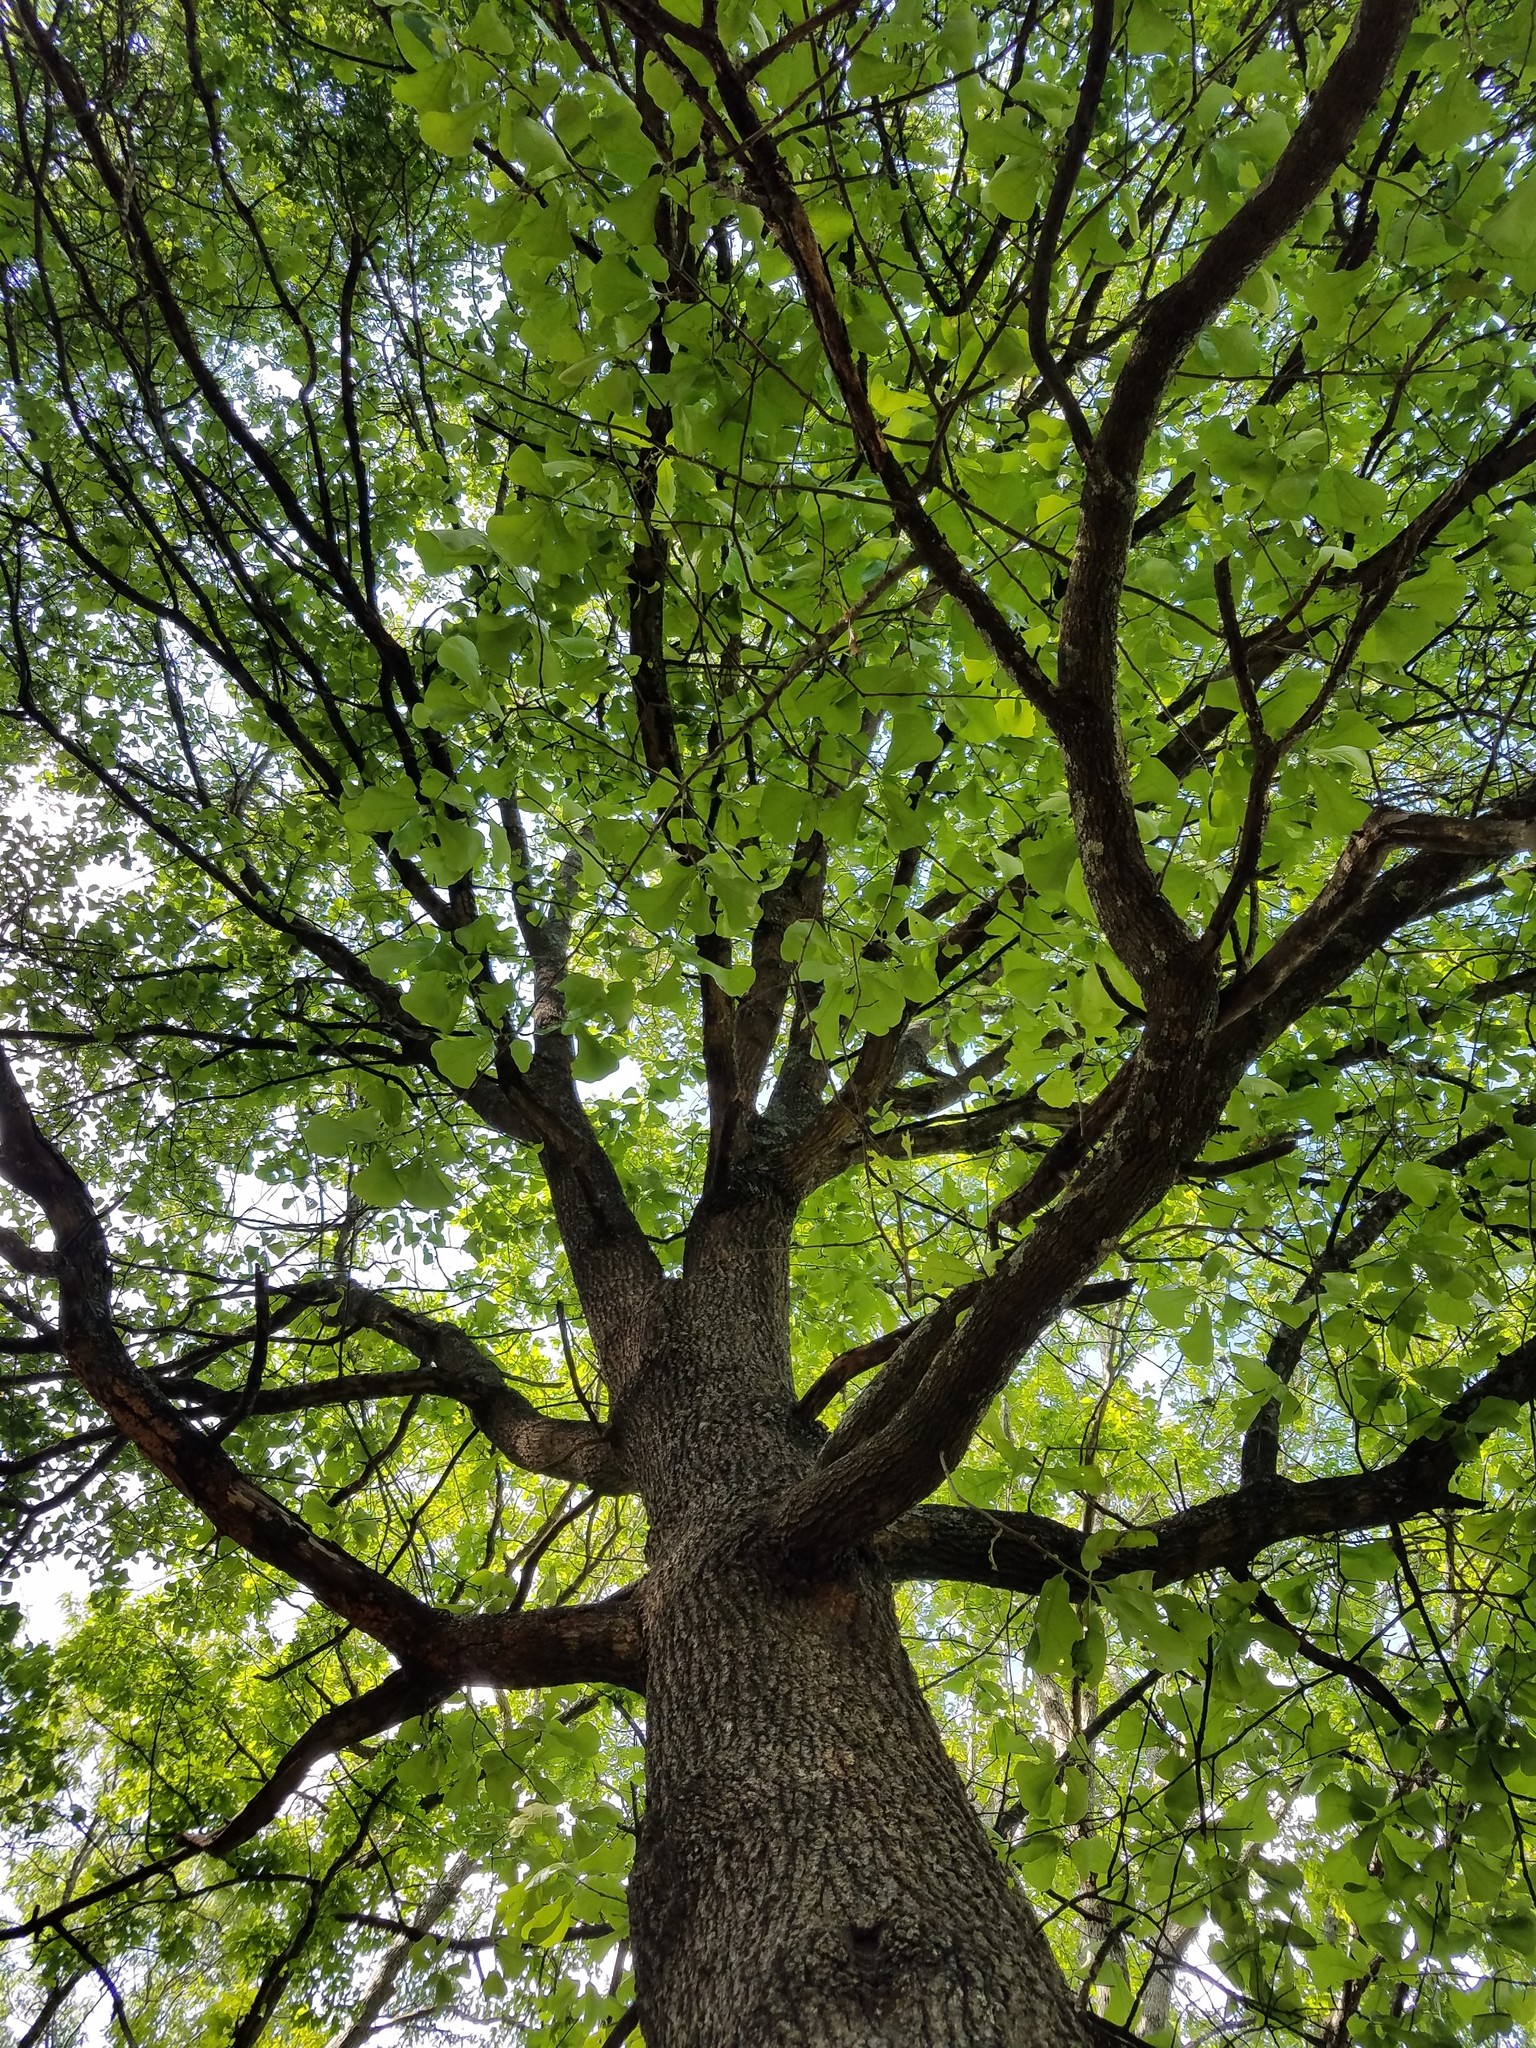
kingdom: Plantae
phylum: Tracheophyta
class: Magnoliopsida
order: Fagales
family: Fagaceae
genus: Quercus
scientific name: Quercus marilandica
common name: Blackjack oak
